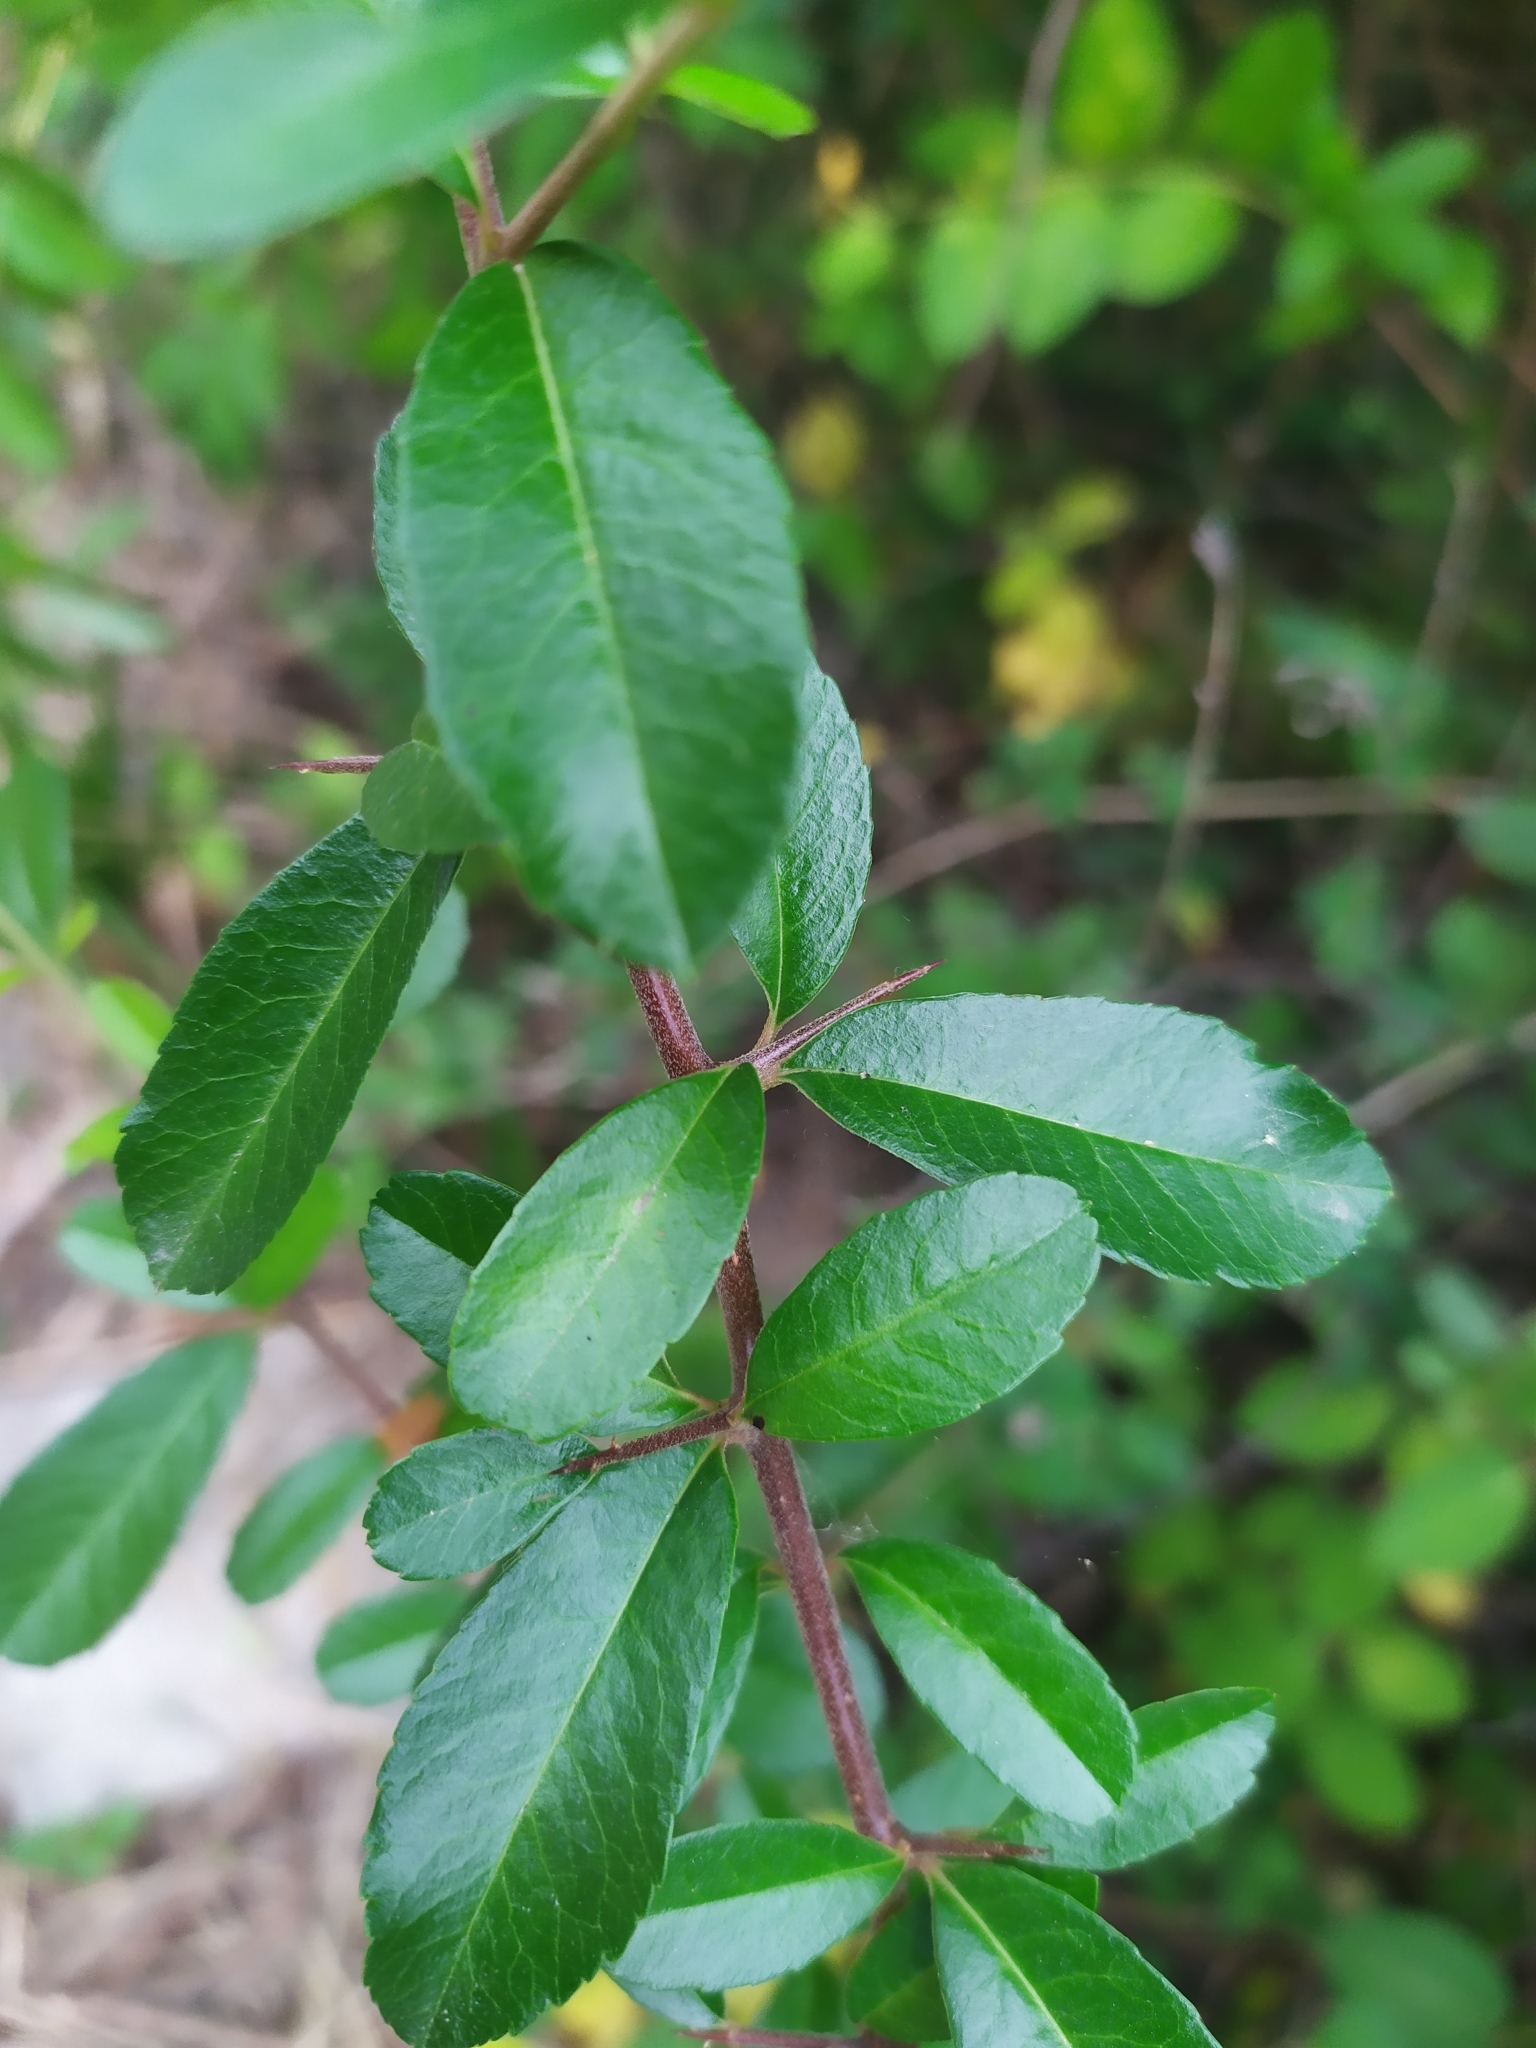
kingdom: Plantae
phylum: Tracheophyta
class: Magnoliopsida
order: Rosales
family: Rosaceae
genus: Pyracantha
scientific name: Pyracantha coccinea
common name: Firethorn
